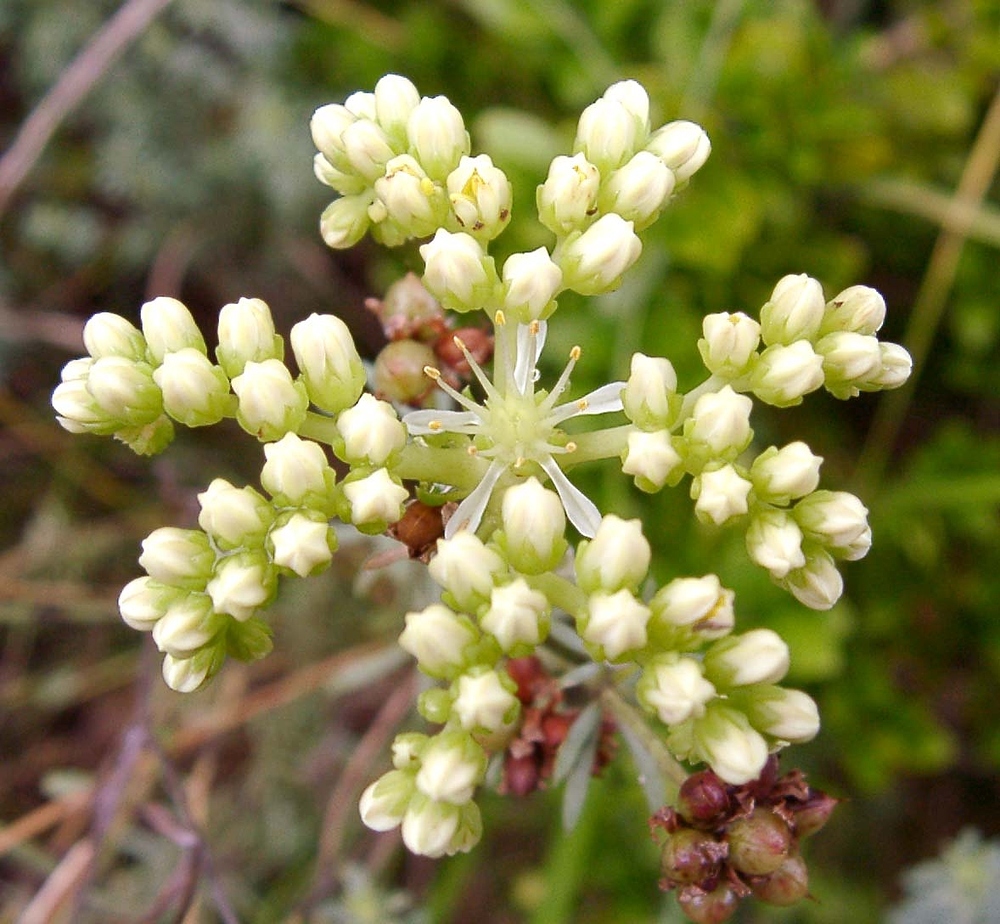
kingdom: Plantae
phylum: Tracheophyta
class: Magnoliopsida
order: Saxifragales
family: Crassulaceae
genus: Petrosedum
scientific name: Petrosedum sediforme
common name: Pale stonecrop
